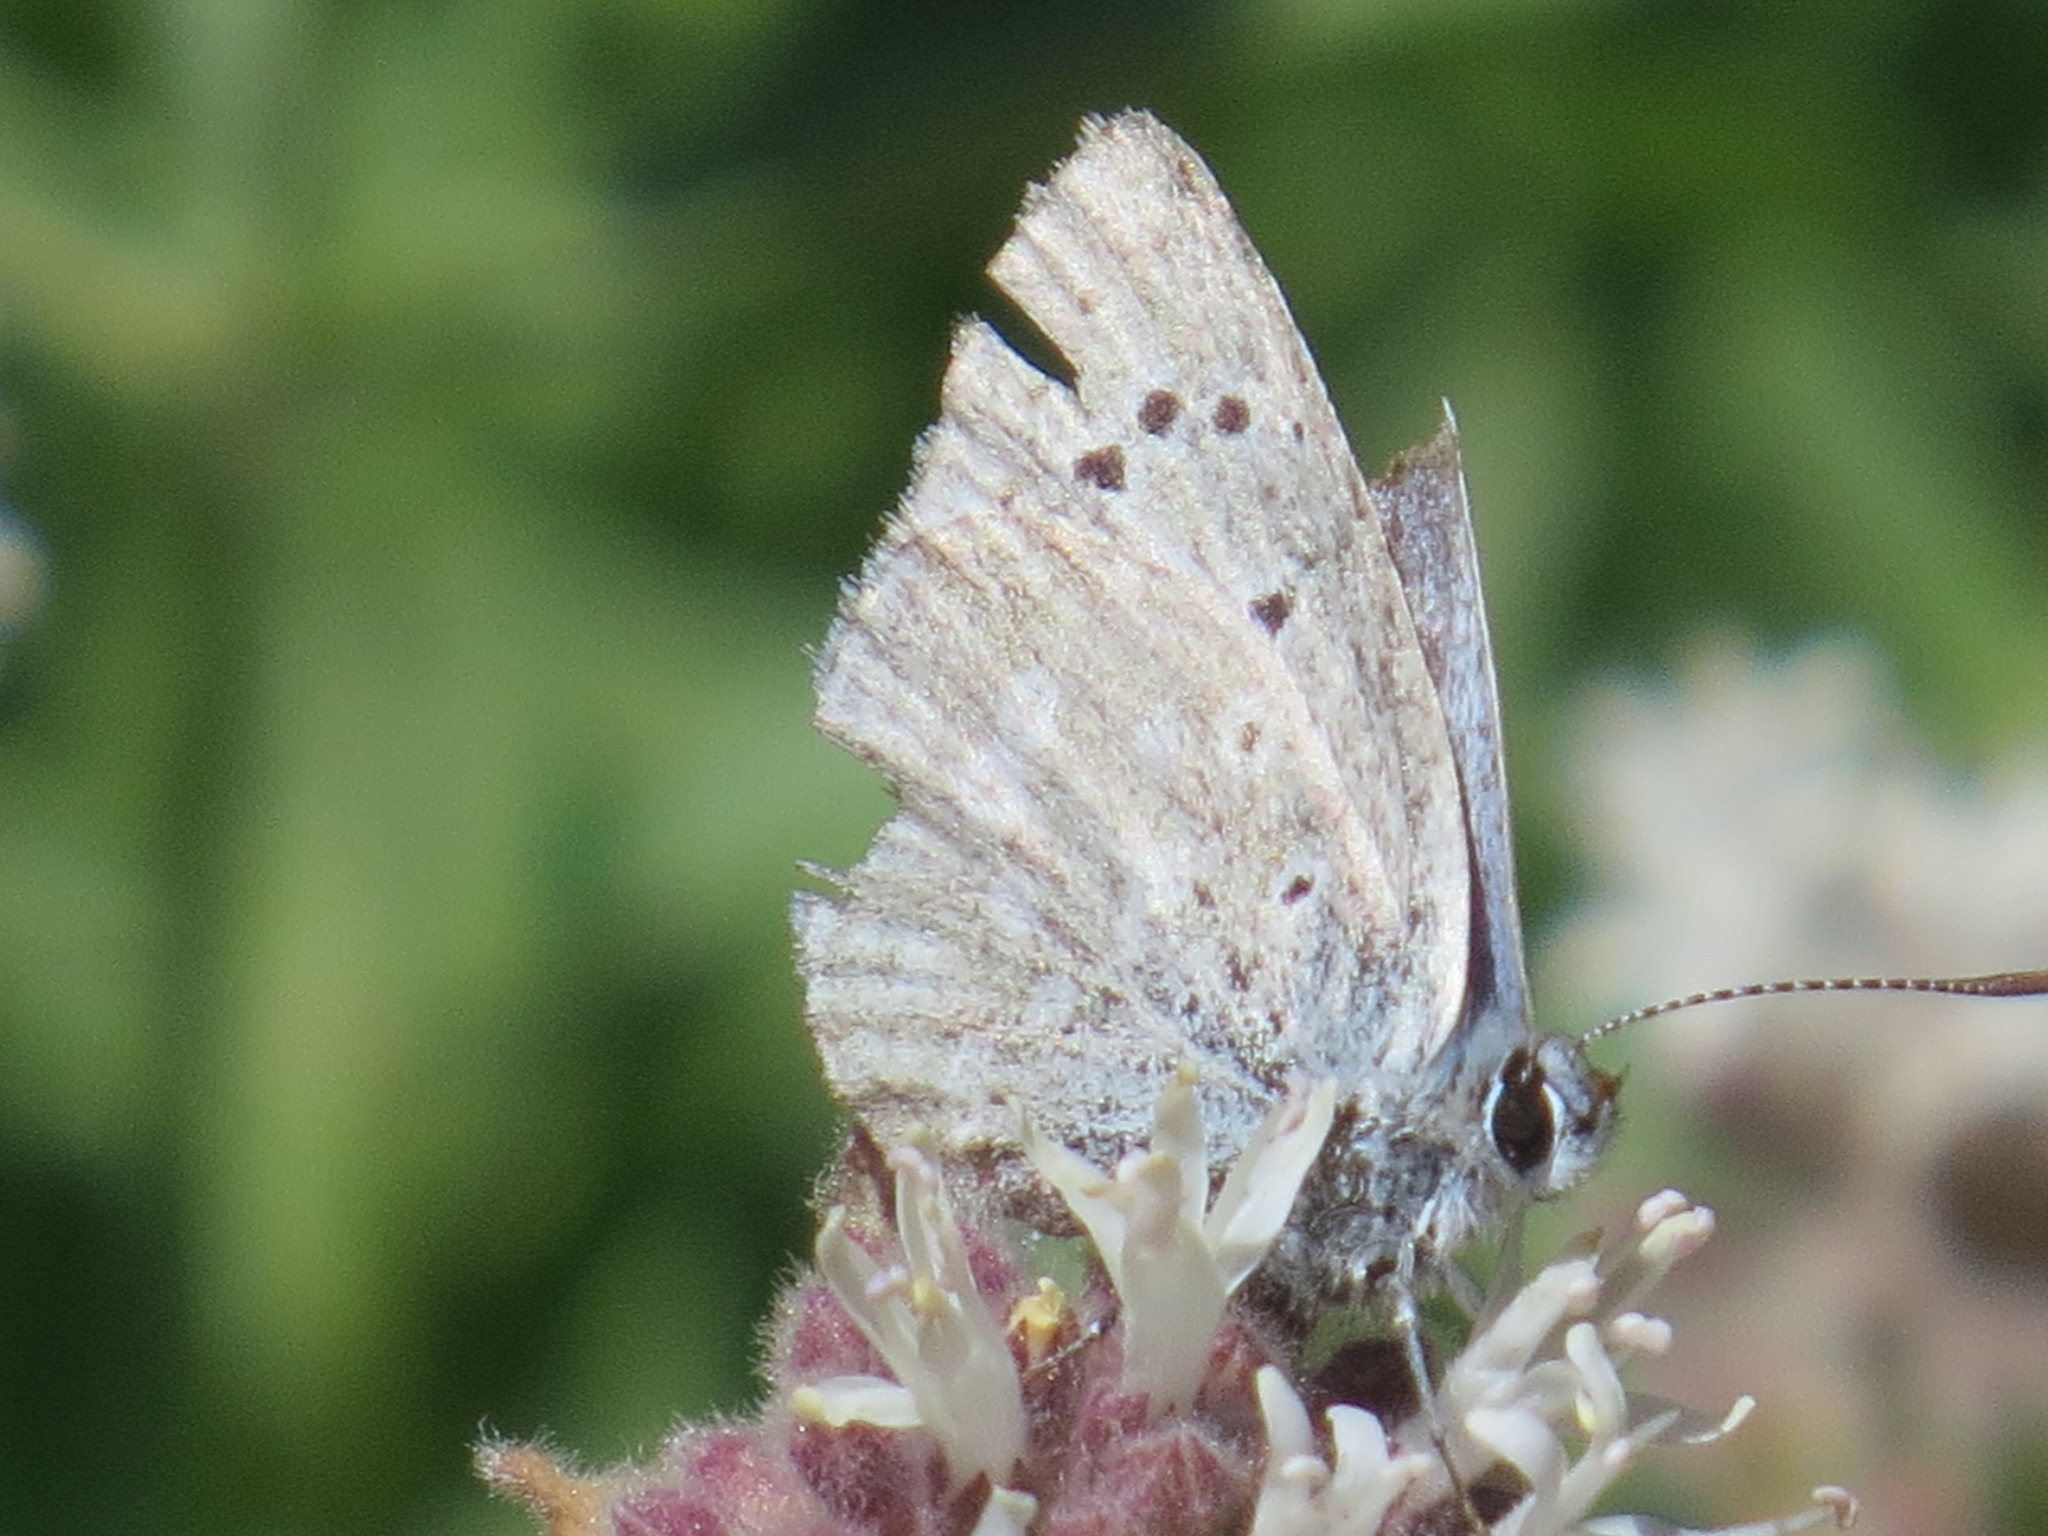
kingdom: Animalia
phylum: Arthropoda
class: Insecta
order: Lepidoptera
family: Lycaenidae
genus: Icaricia
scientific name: Icaricia icarioides
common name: Boisduval's blue
